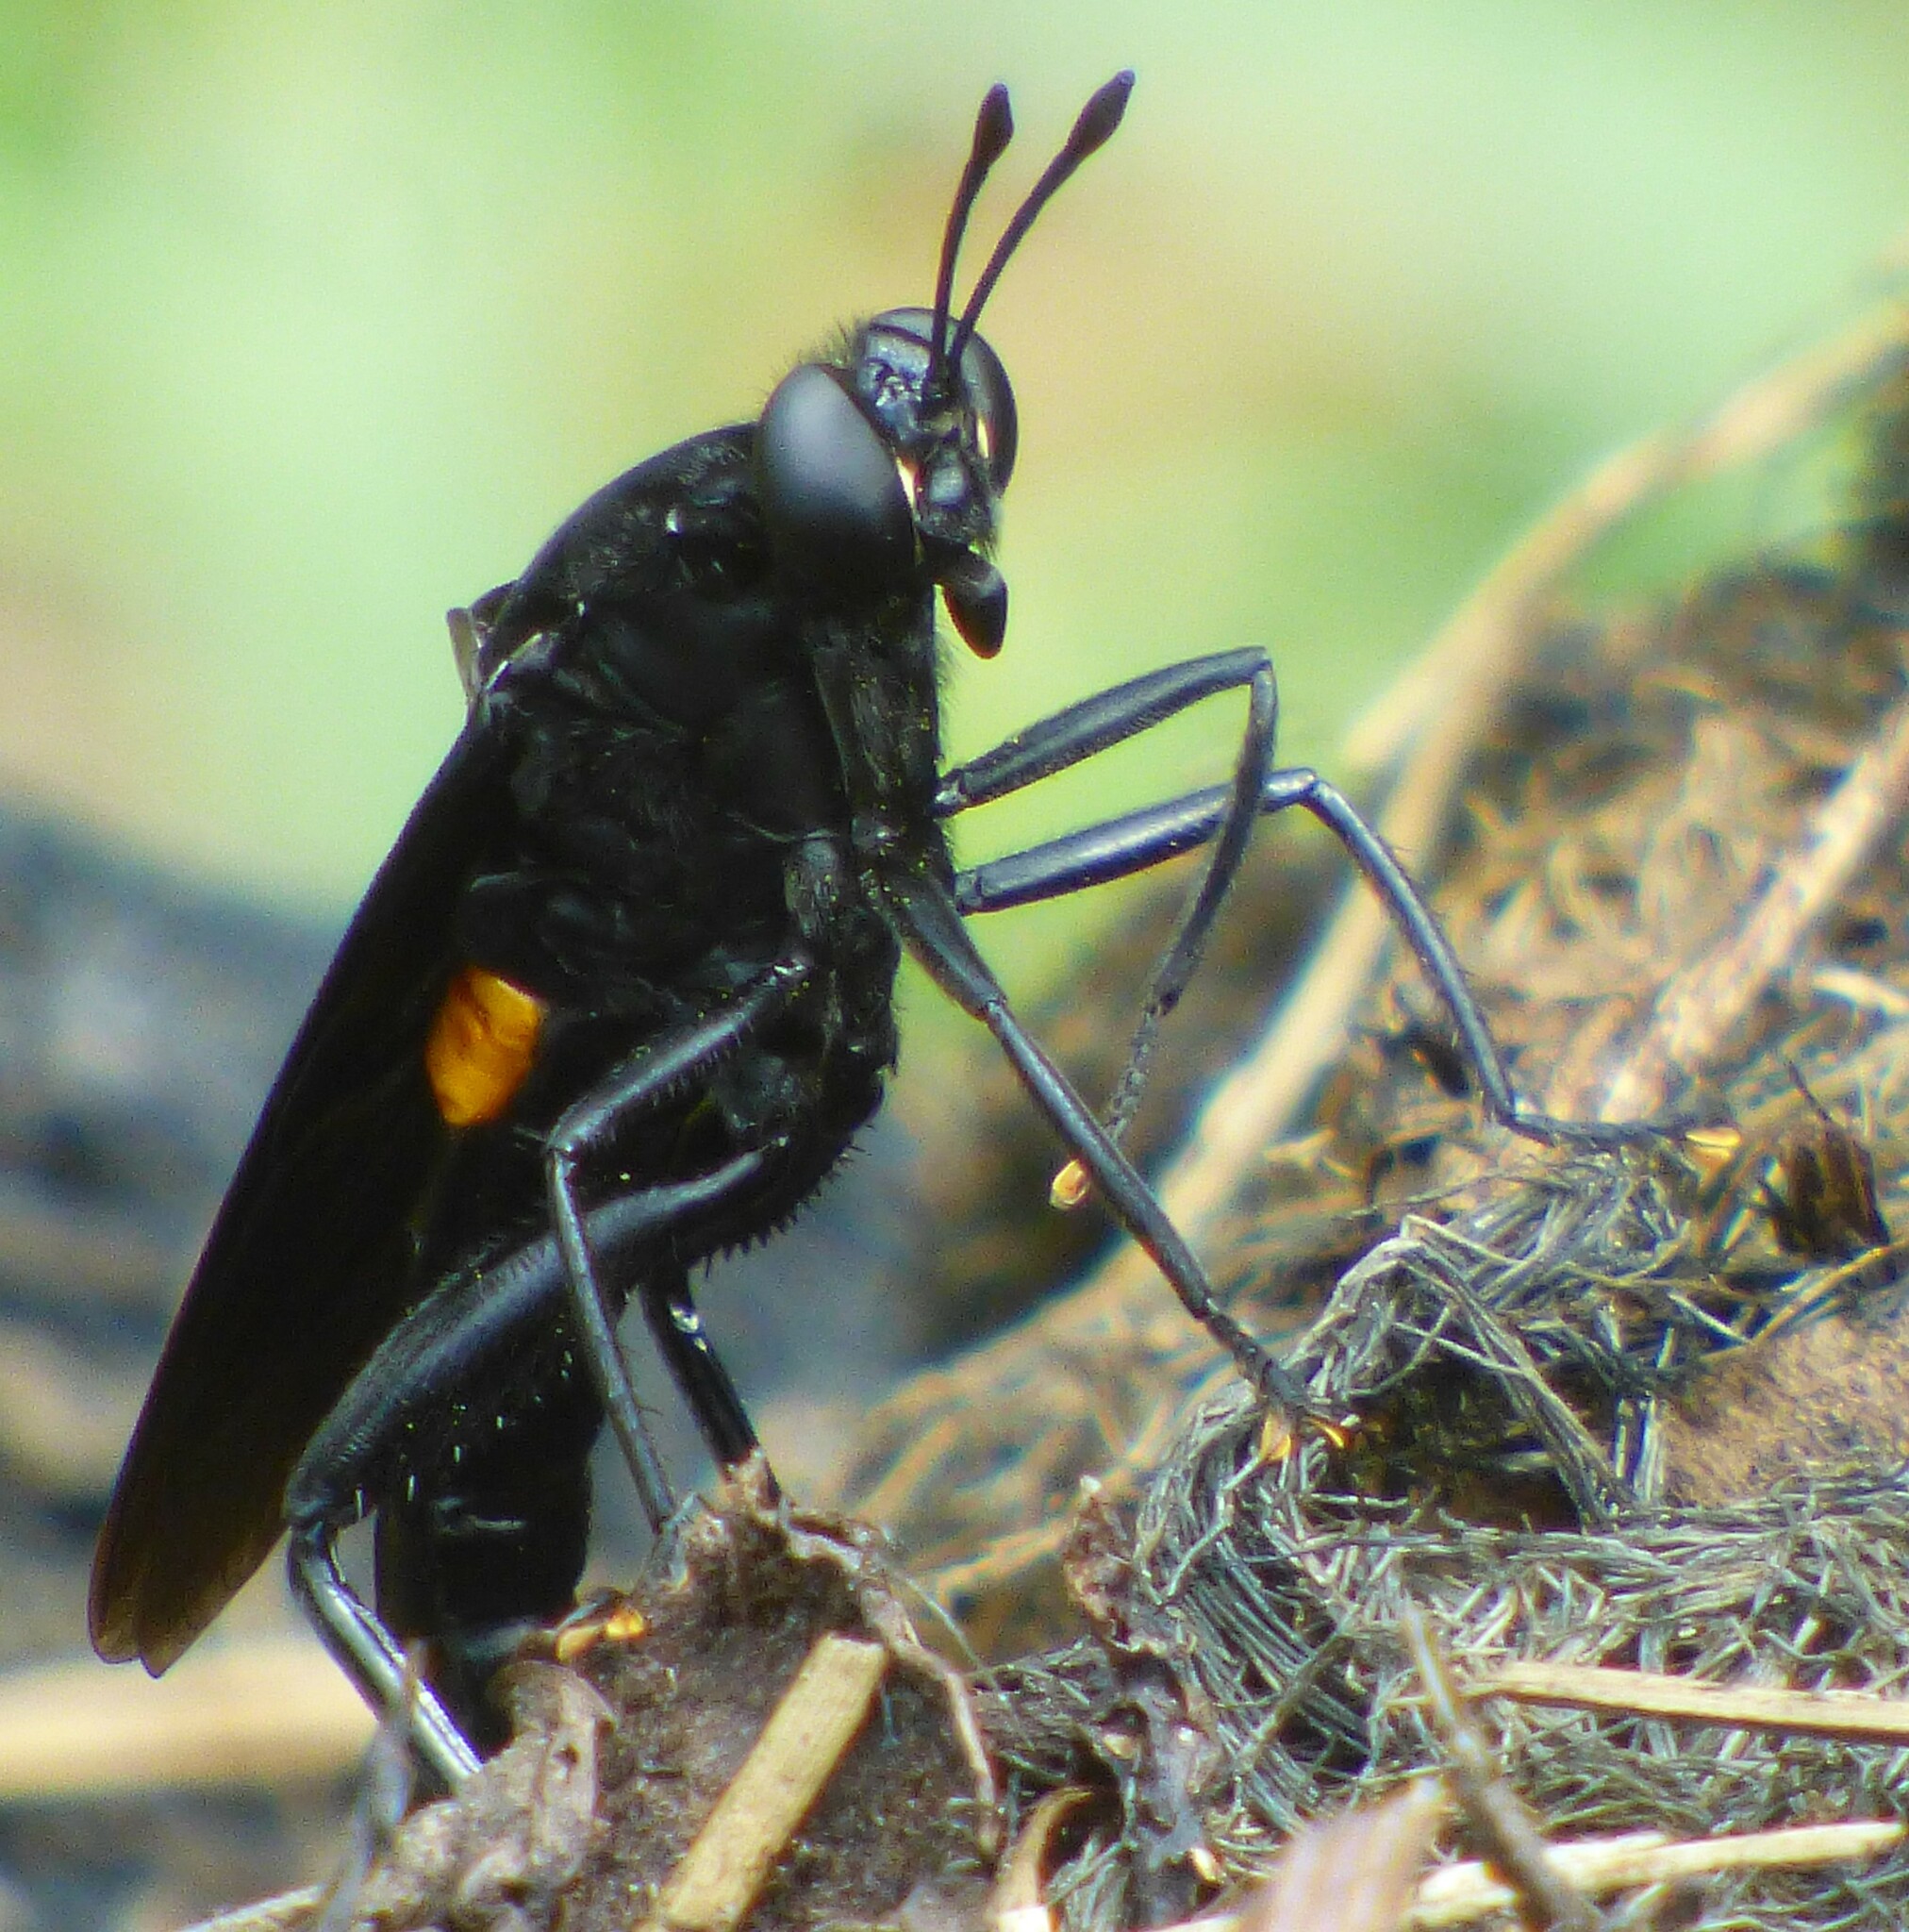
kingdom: Animalia
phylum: Arthropoda
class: Insecta
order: Diptera
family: Mydidae
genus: Mydas
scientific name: Mydas clavatus
